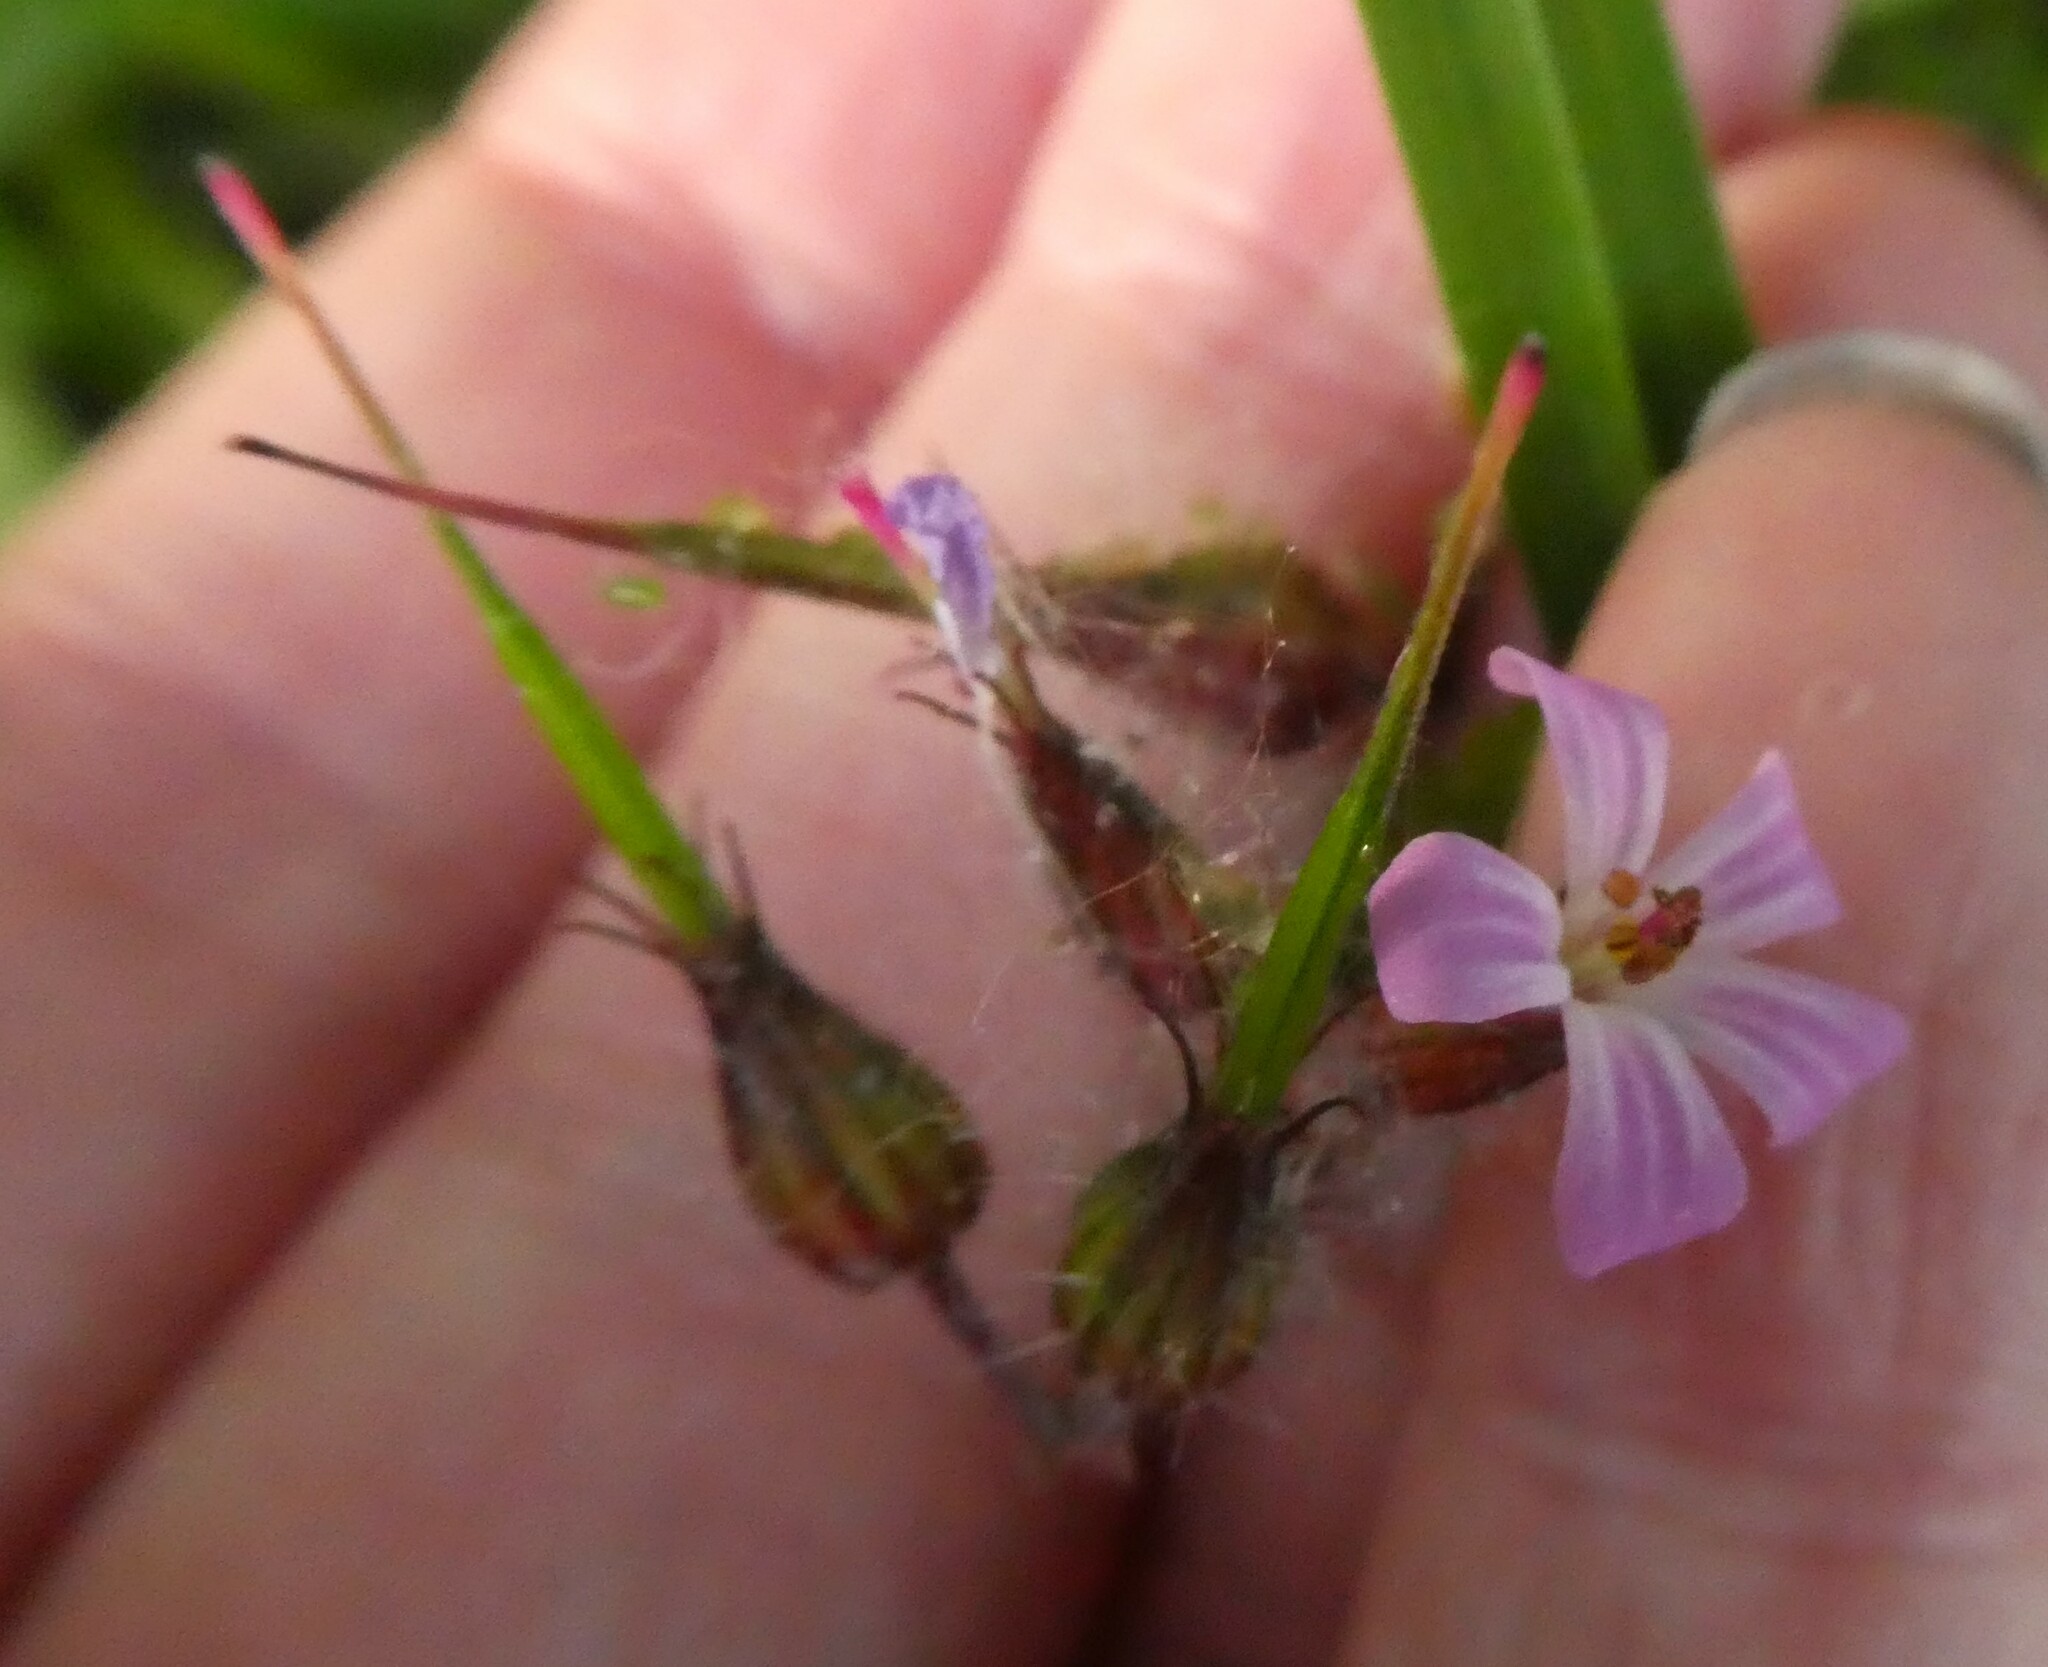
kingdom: Plantae
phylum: Tracheophyta
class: Magnoliopsida
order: Geraniales
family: Geraniaceae
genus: Geranium
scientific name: Geranium robertianum
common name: Herb-robert
